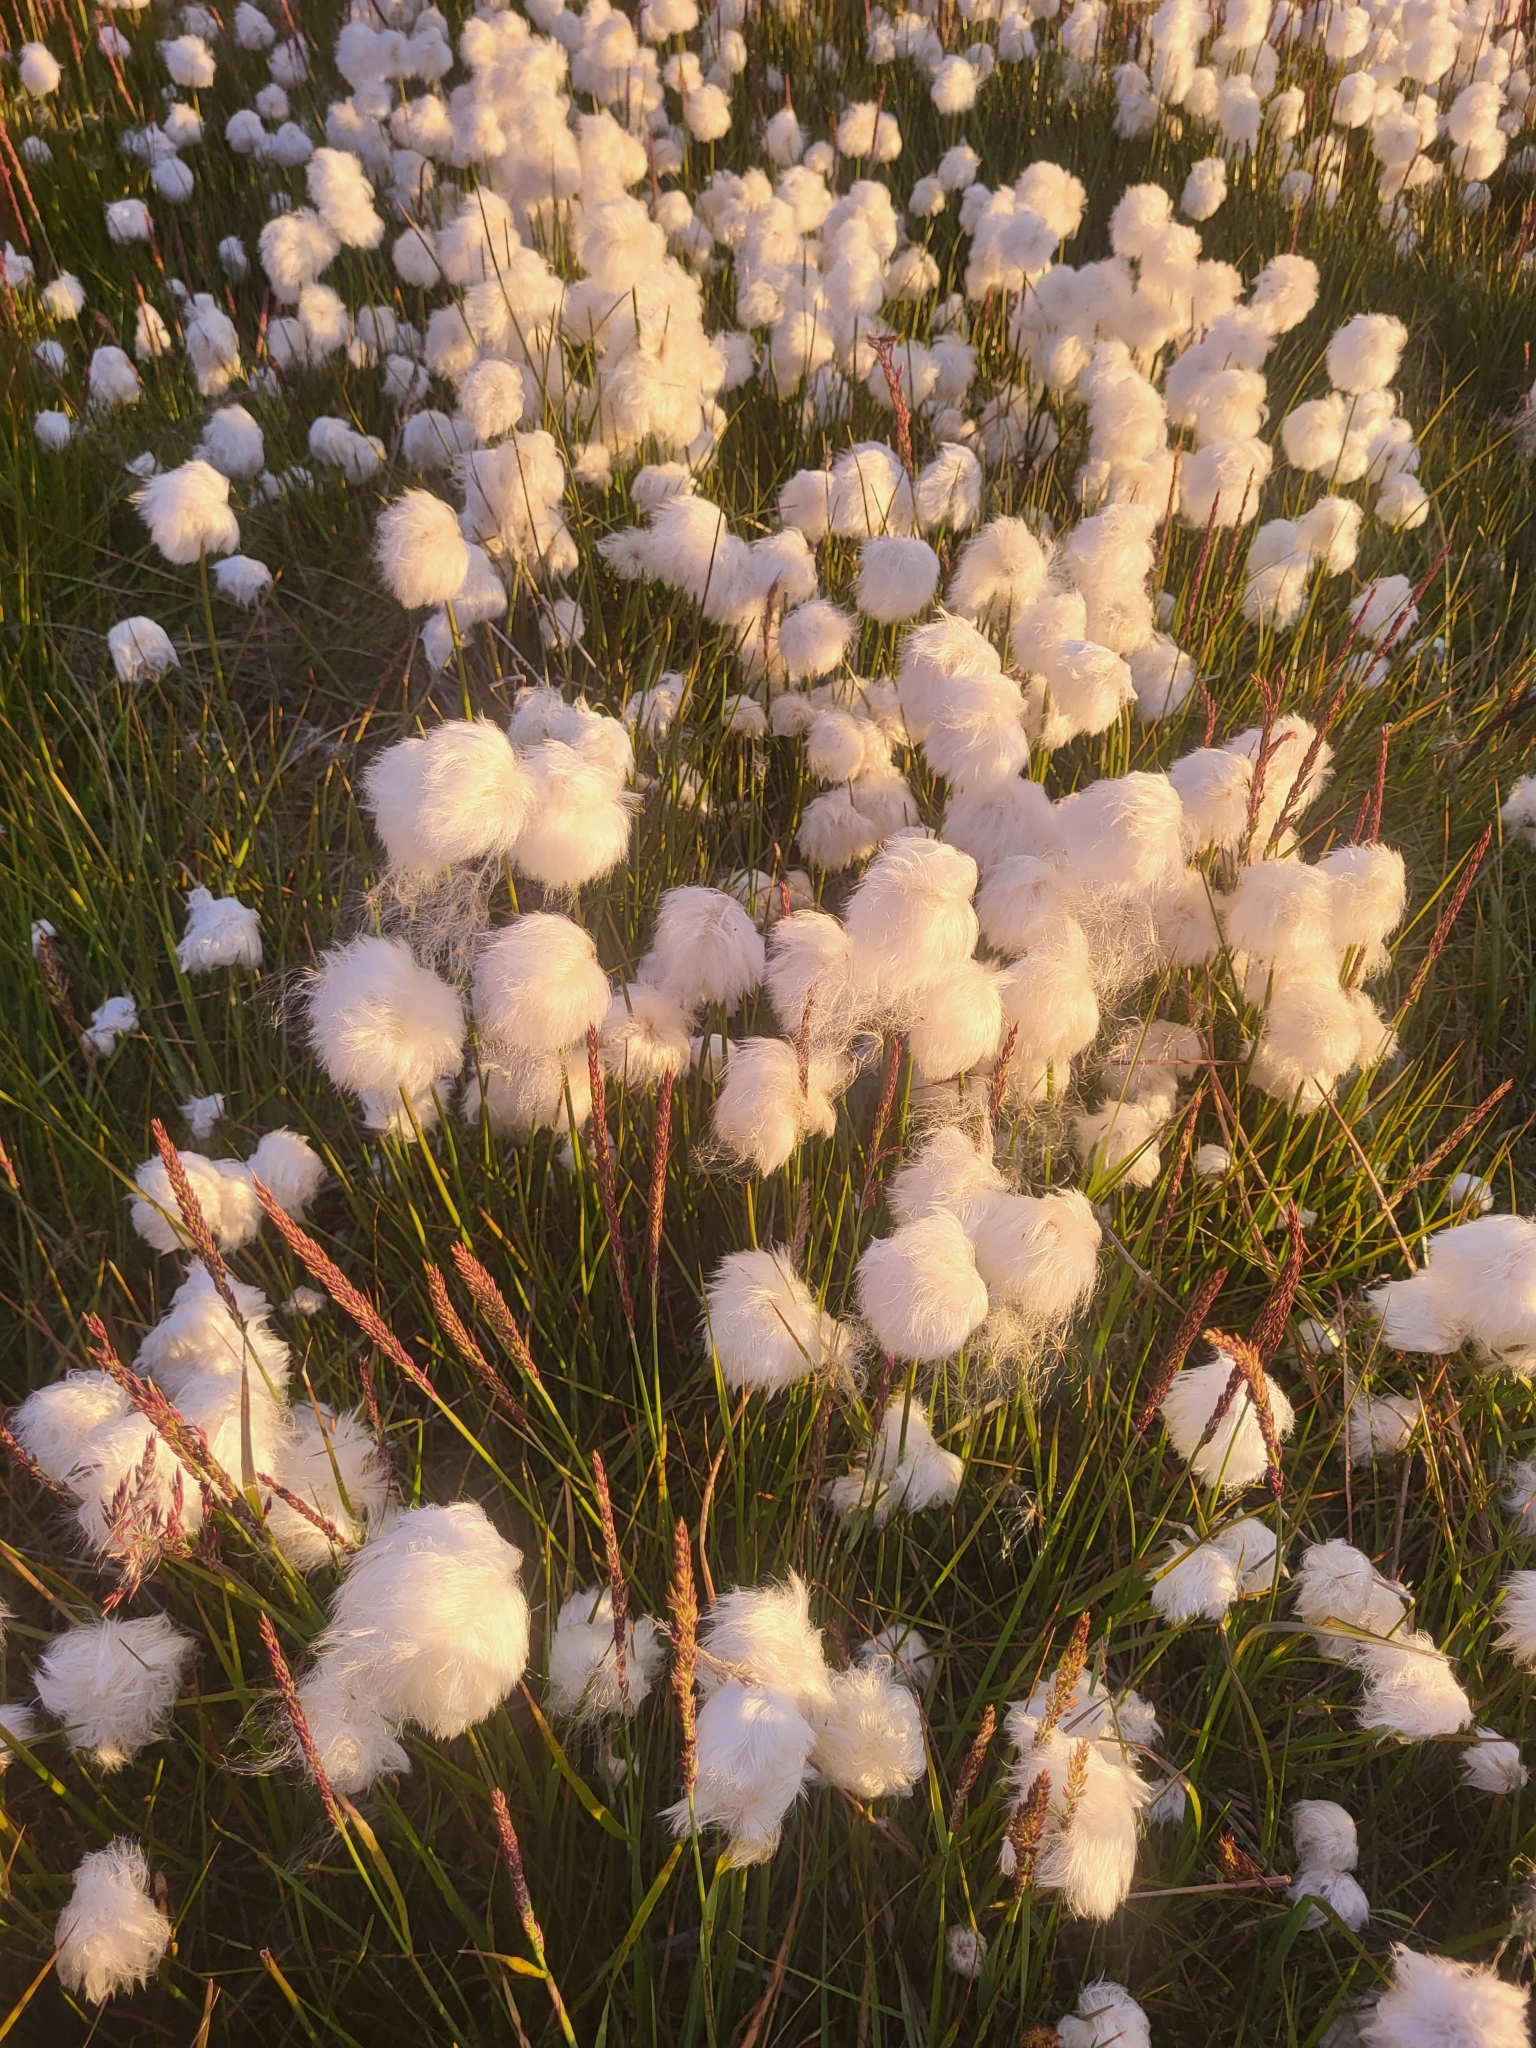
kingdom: Plantae
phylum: Tracheophyta
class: Liliopsida
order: Poales
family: Cyperaceae
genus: Eriophorum
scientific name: Eriophorum scheuchzeri
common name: Scheuchzer's cottongrass
